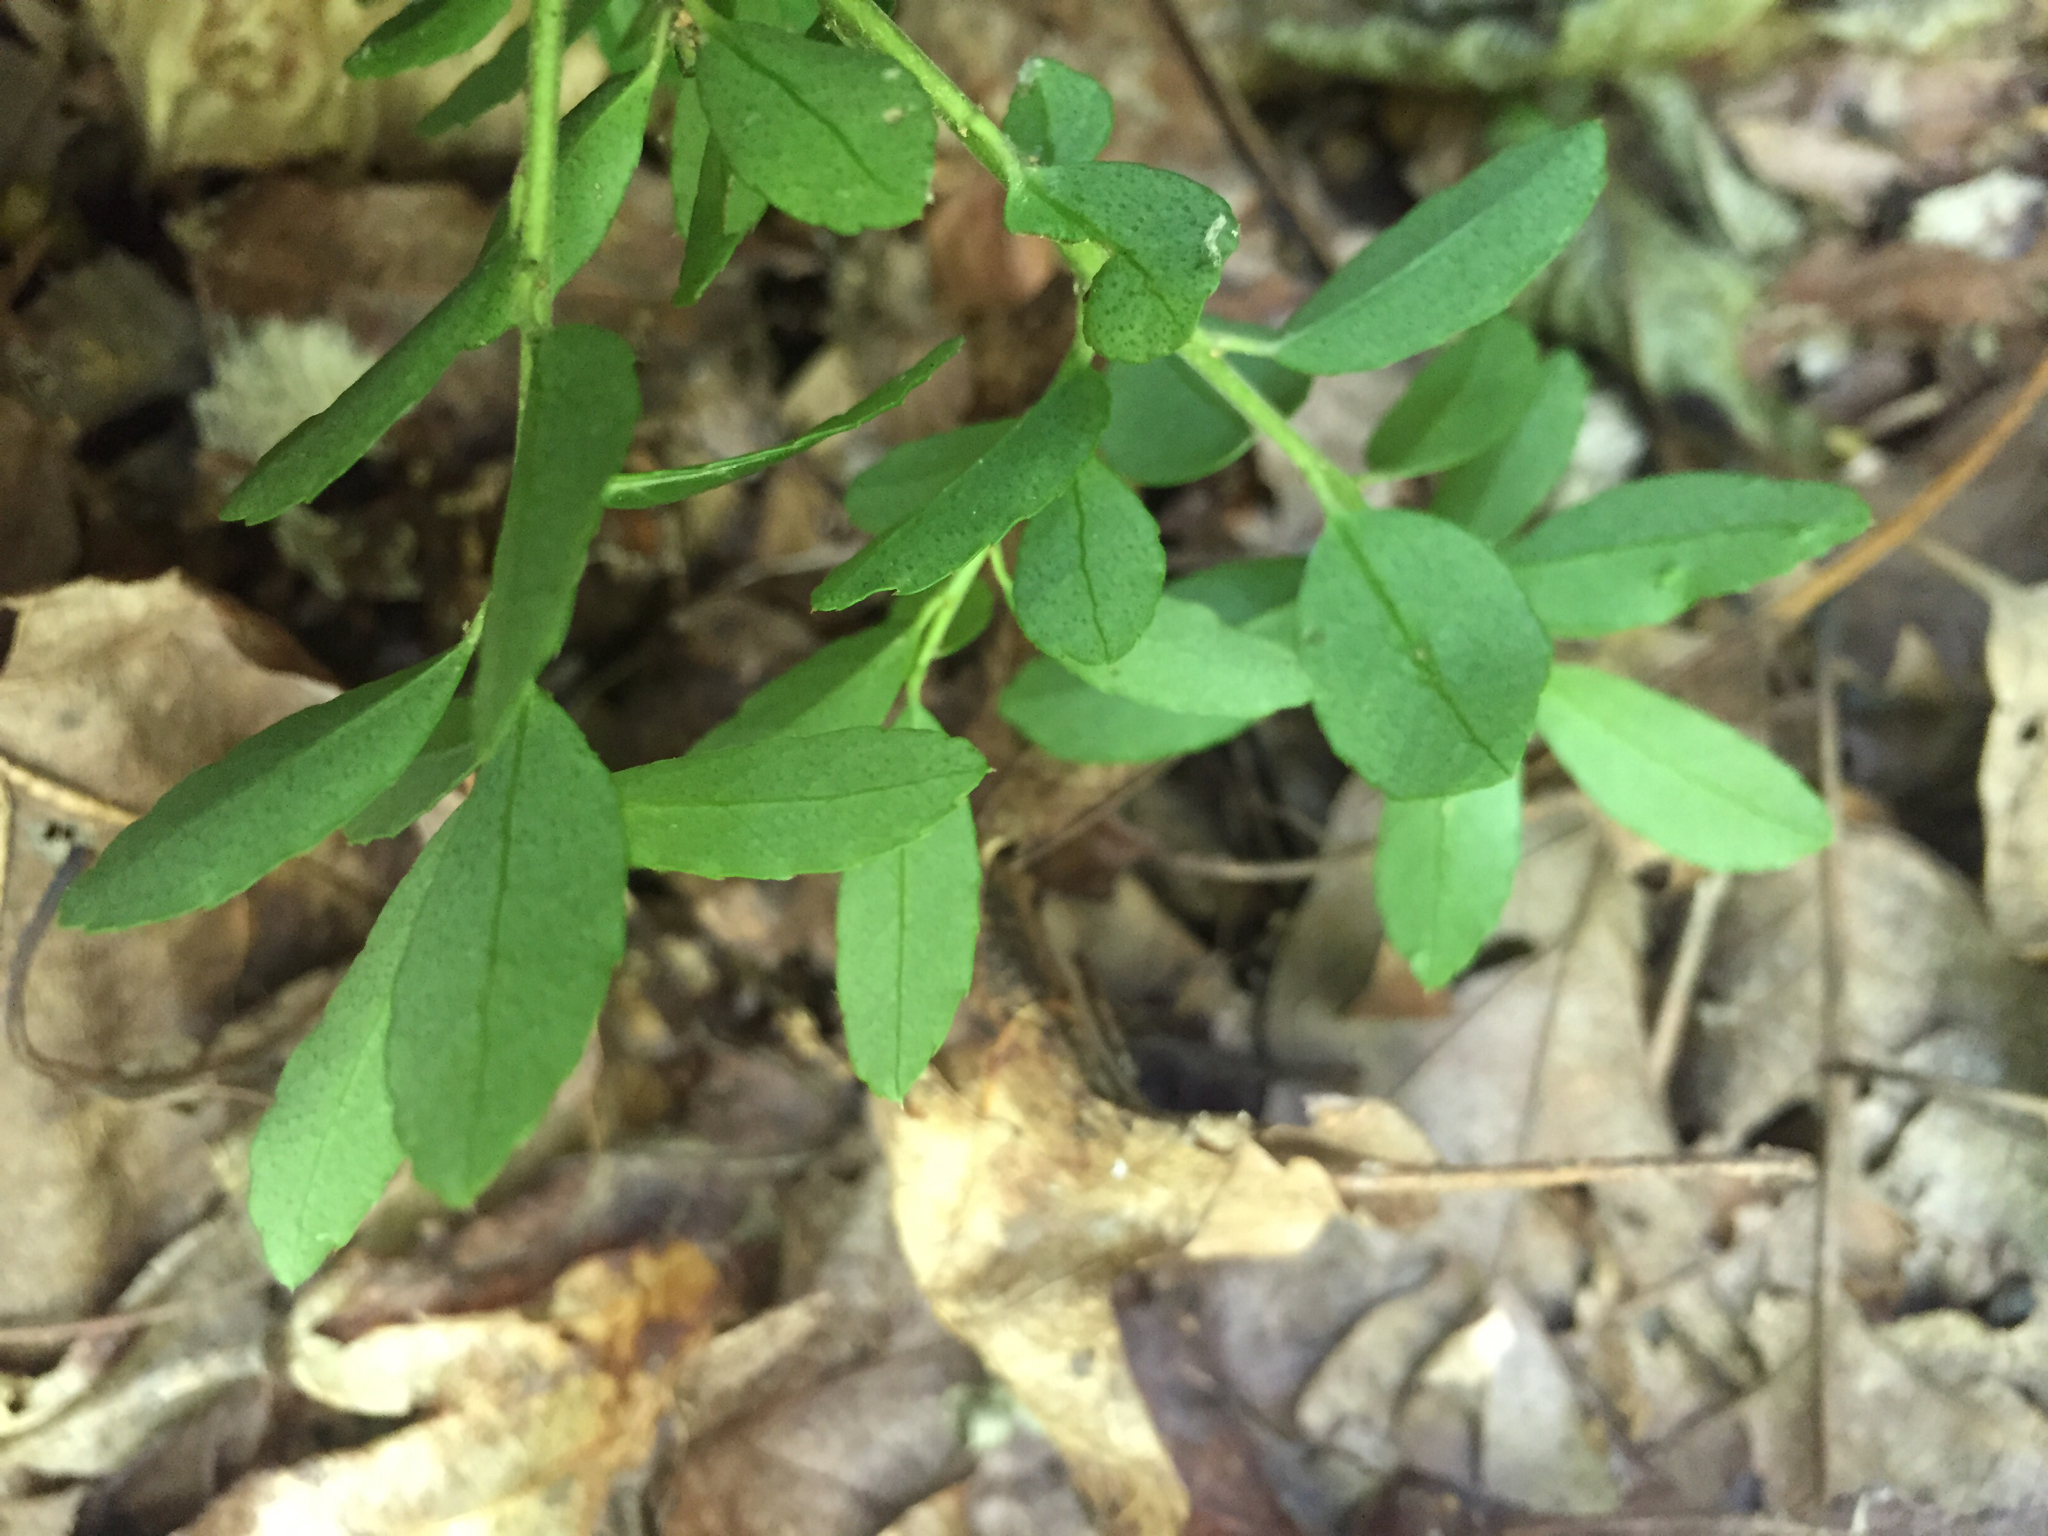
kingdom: Plantae
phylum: Tracheophyta
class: Magnoliopsida
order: Aquifoliales
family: Aquifoliaceae
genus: Ilex
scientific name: Ilex crenata
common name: Japanese holly
